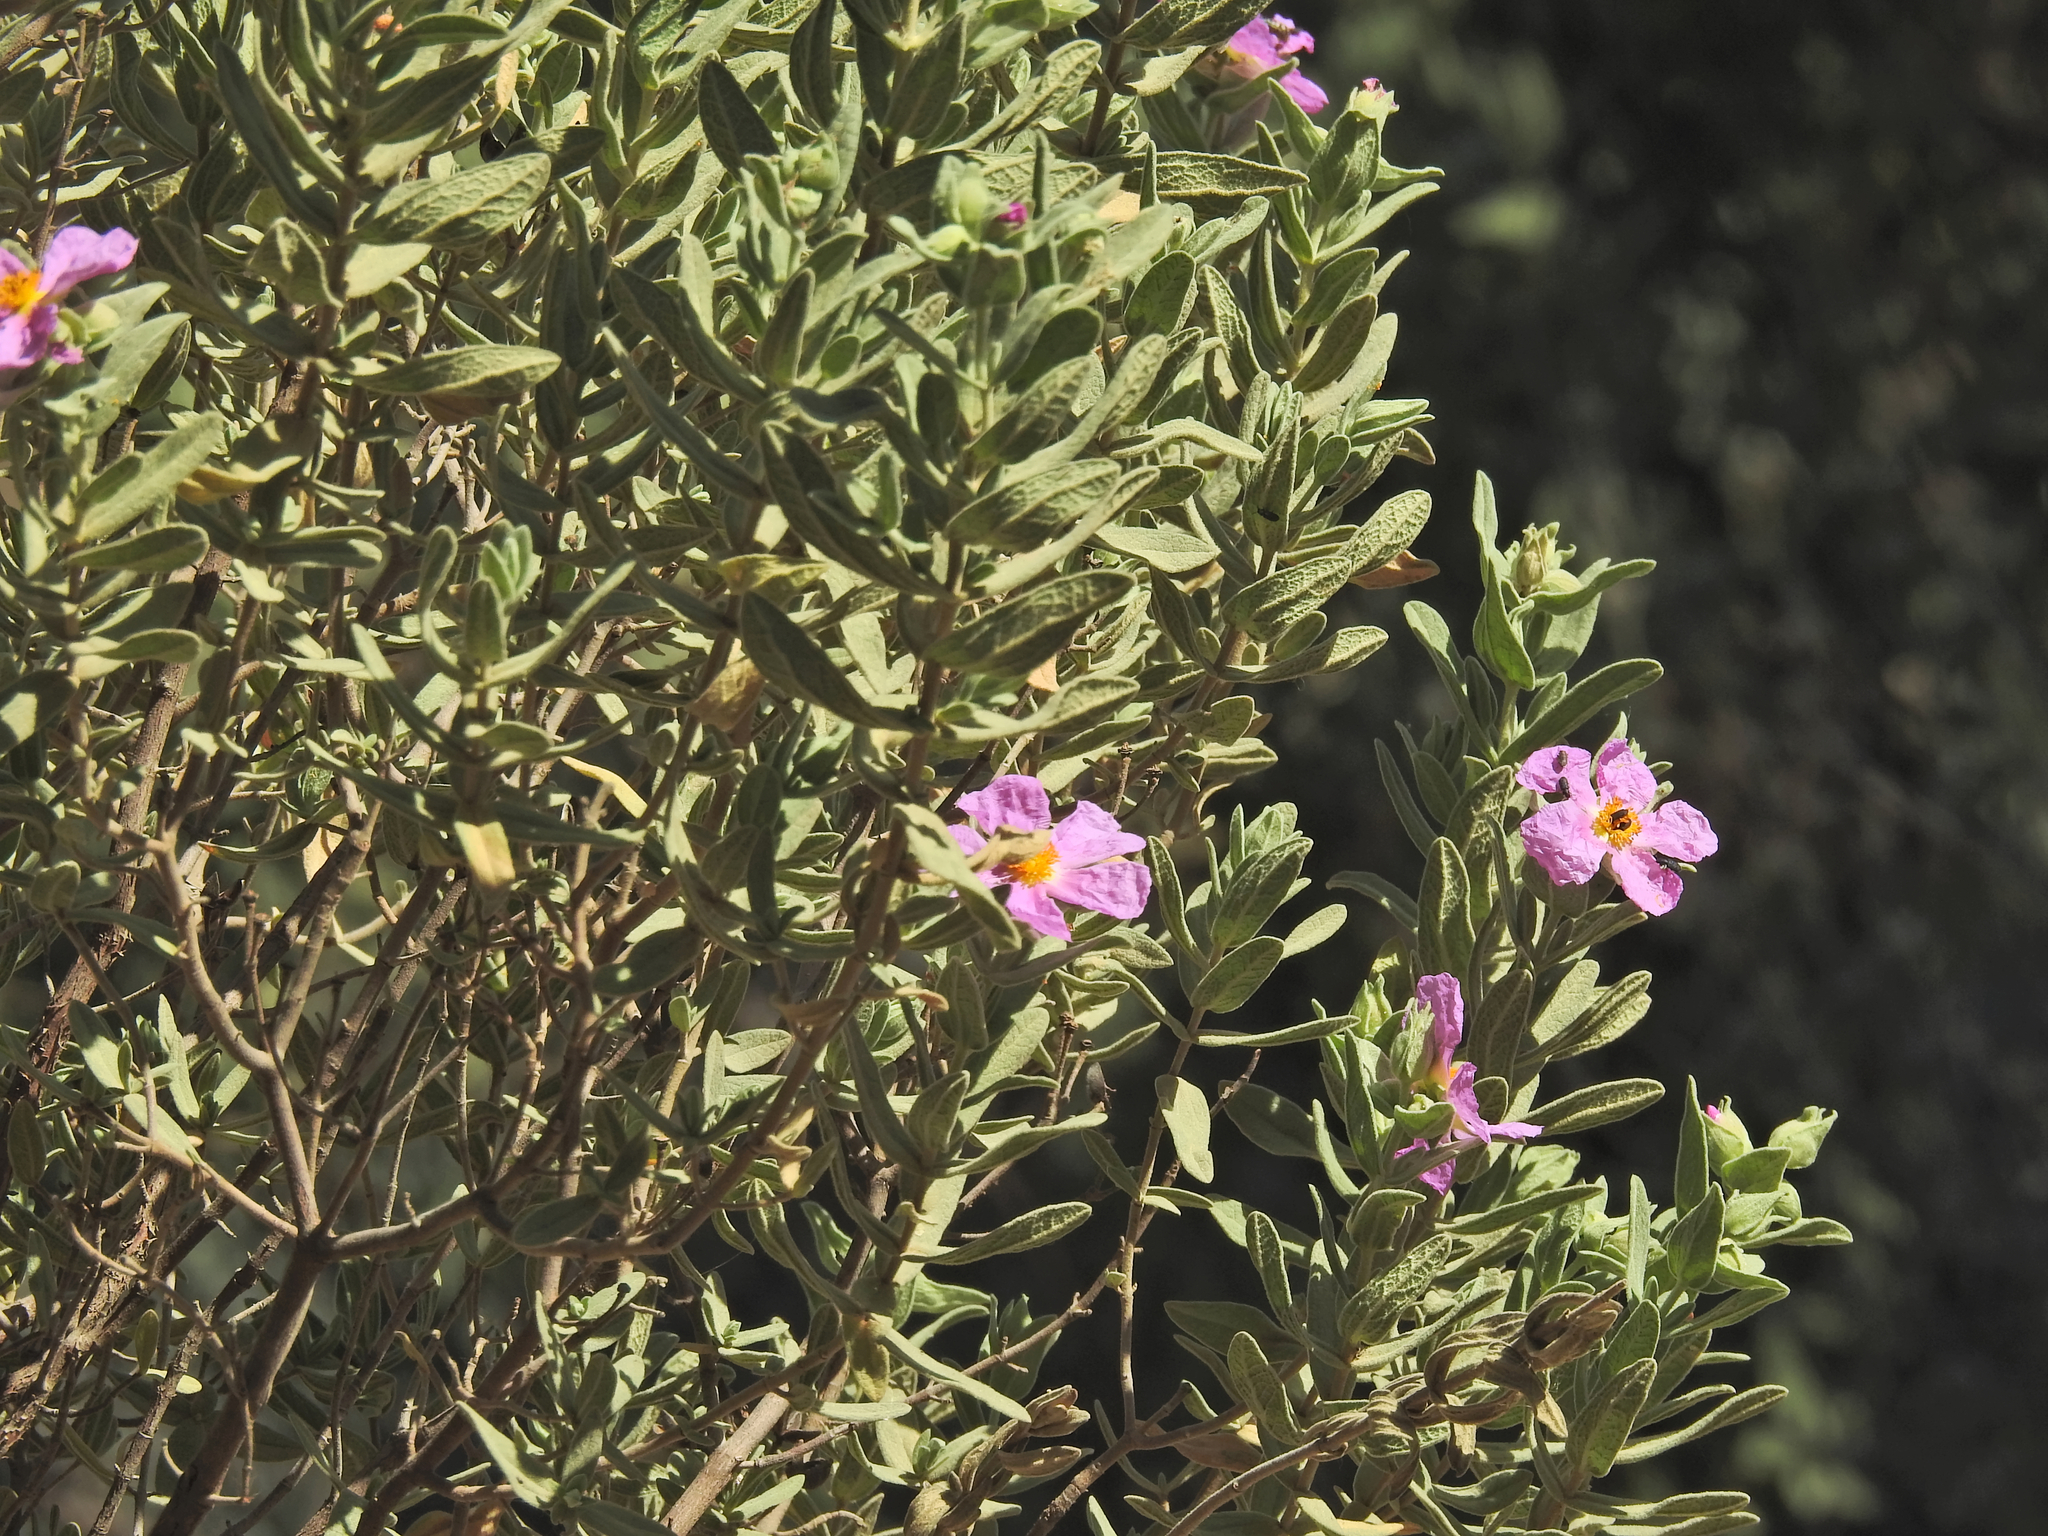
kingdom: Plantae
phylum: Tracheophyta
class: Magnoliopsida
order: Malvales
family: Cistaceae
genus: Cistus
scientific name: Cistus albidus
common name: White-leaf rock-rose
